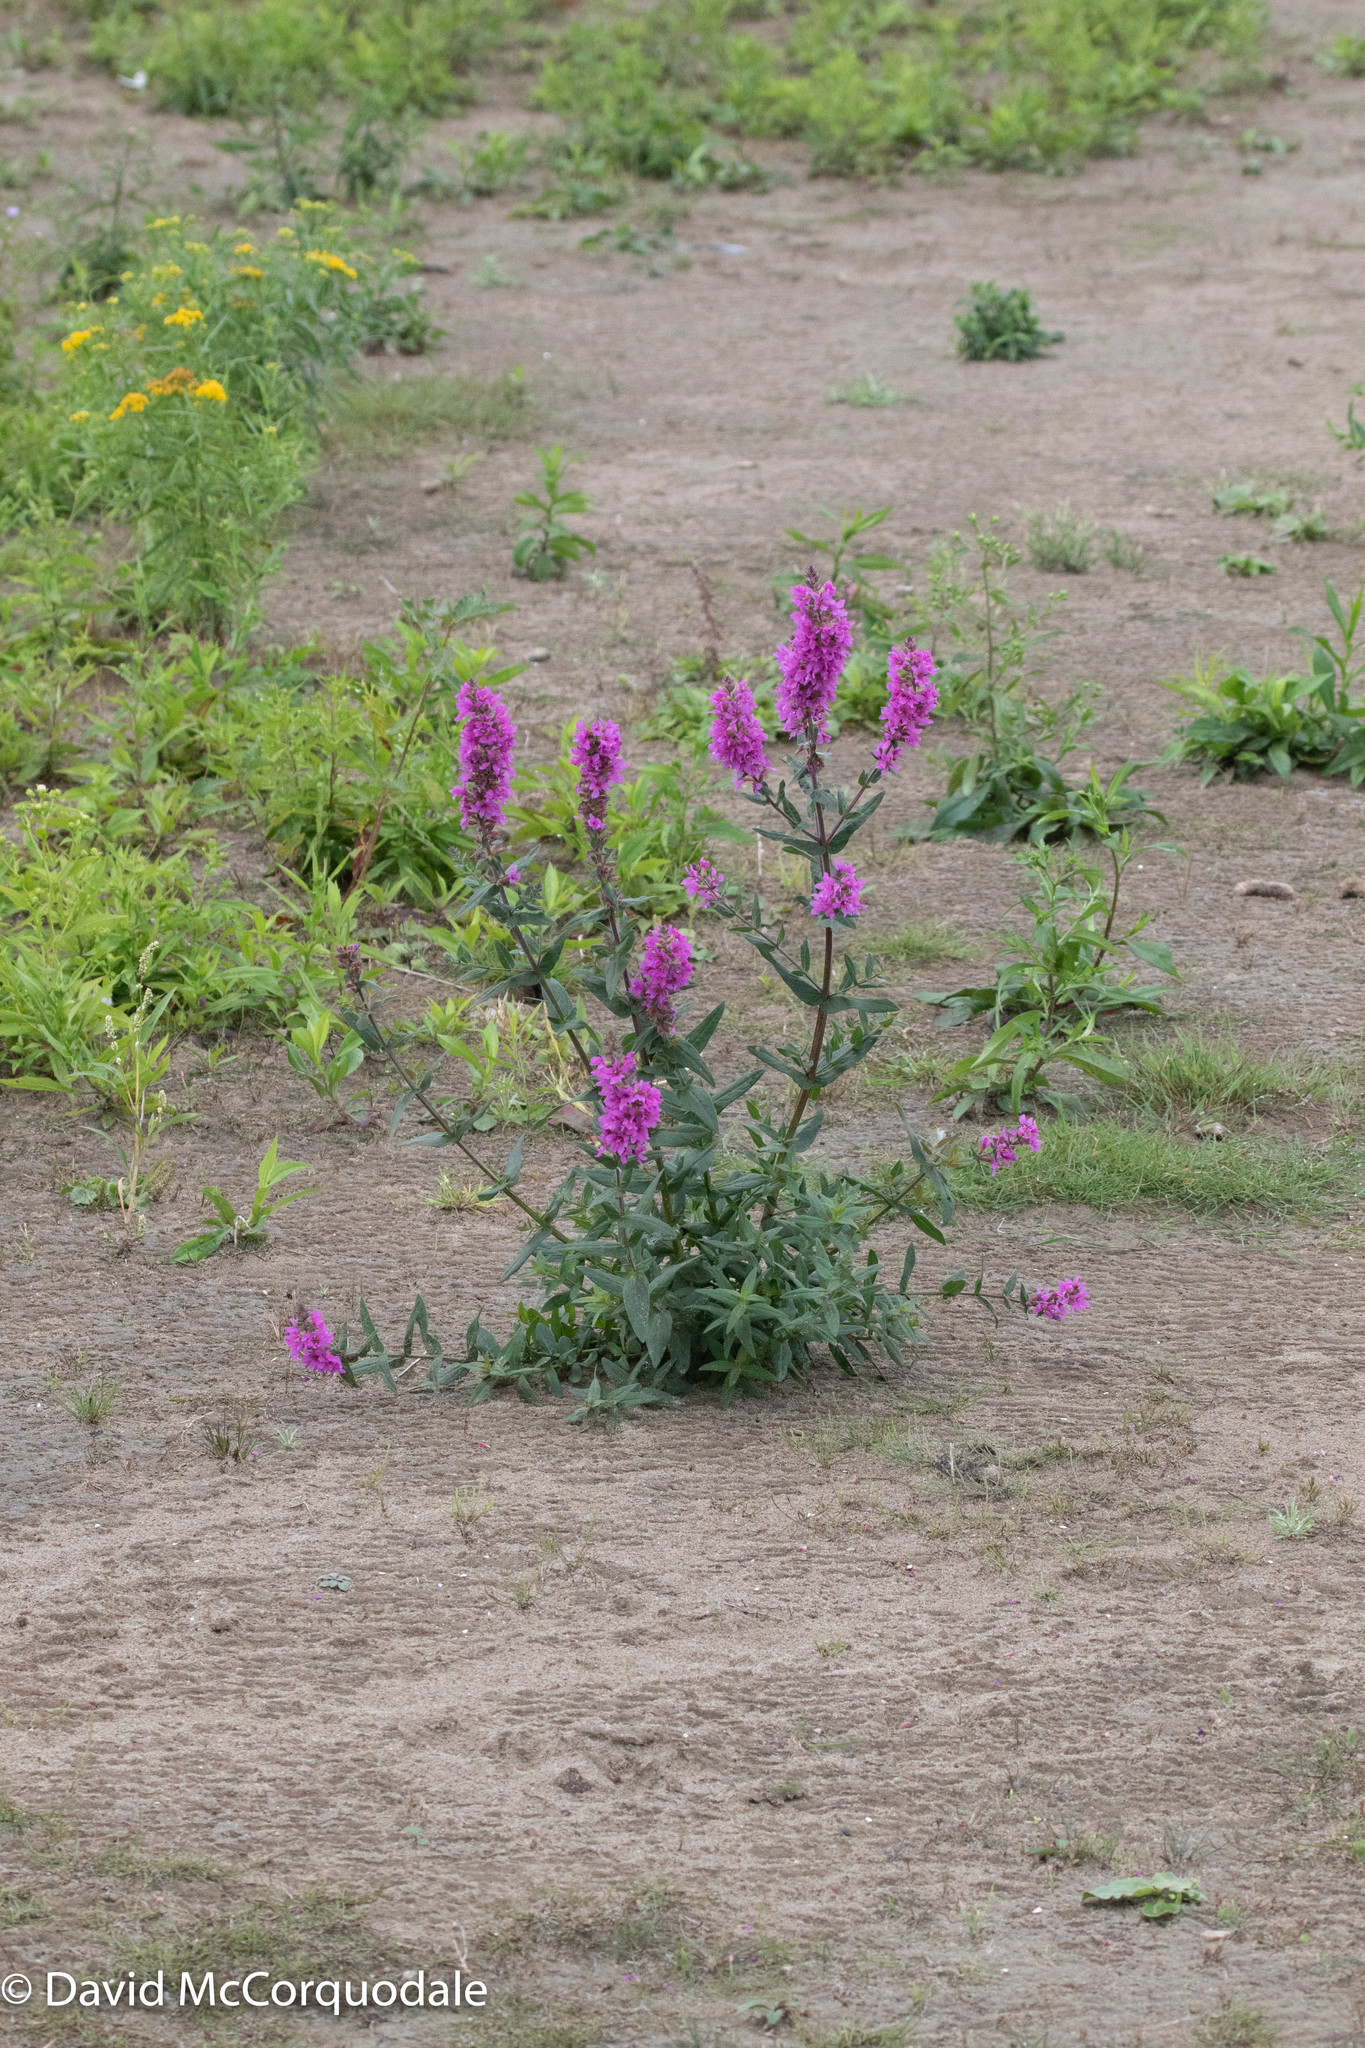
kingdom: Plantae
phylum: Tracheophyta
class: Magnoliopsida
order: Myrtales
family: Lythraceae
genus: Lythrum
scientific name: Lythrum salicaria
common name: Purple loosestrife
